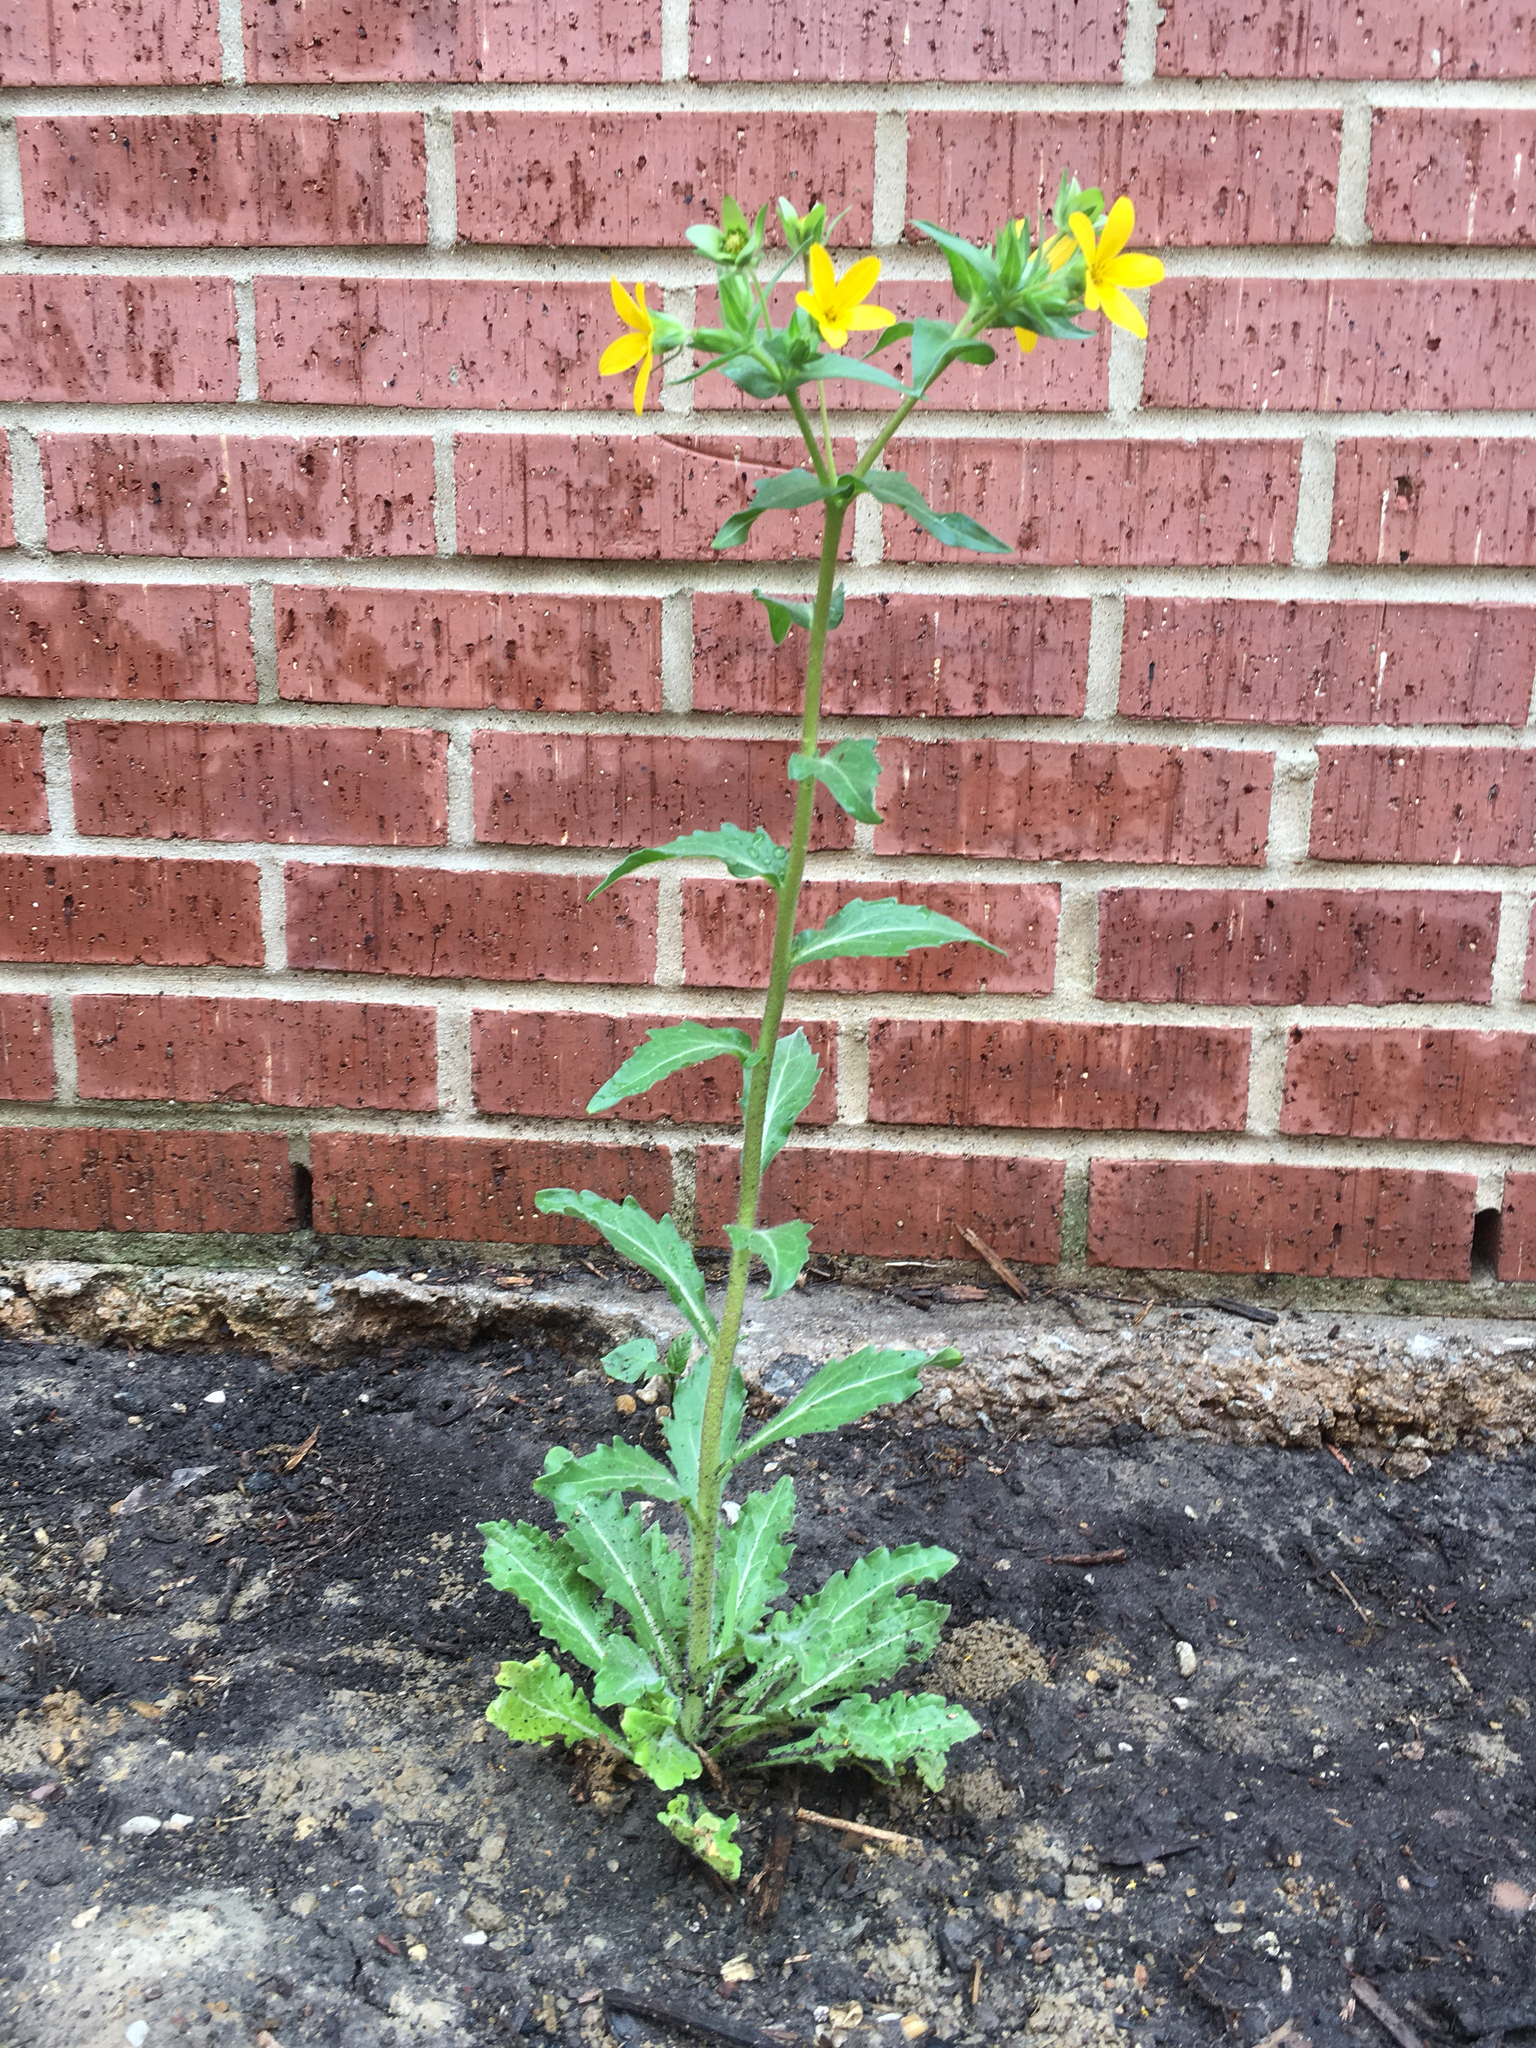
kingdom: Plantae
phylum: Tracheophyta
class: Magnoliopsida
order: Asterales
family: Asteraceae
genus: Lindheimera
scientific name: Lindheimera texana
